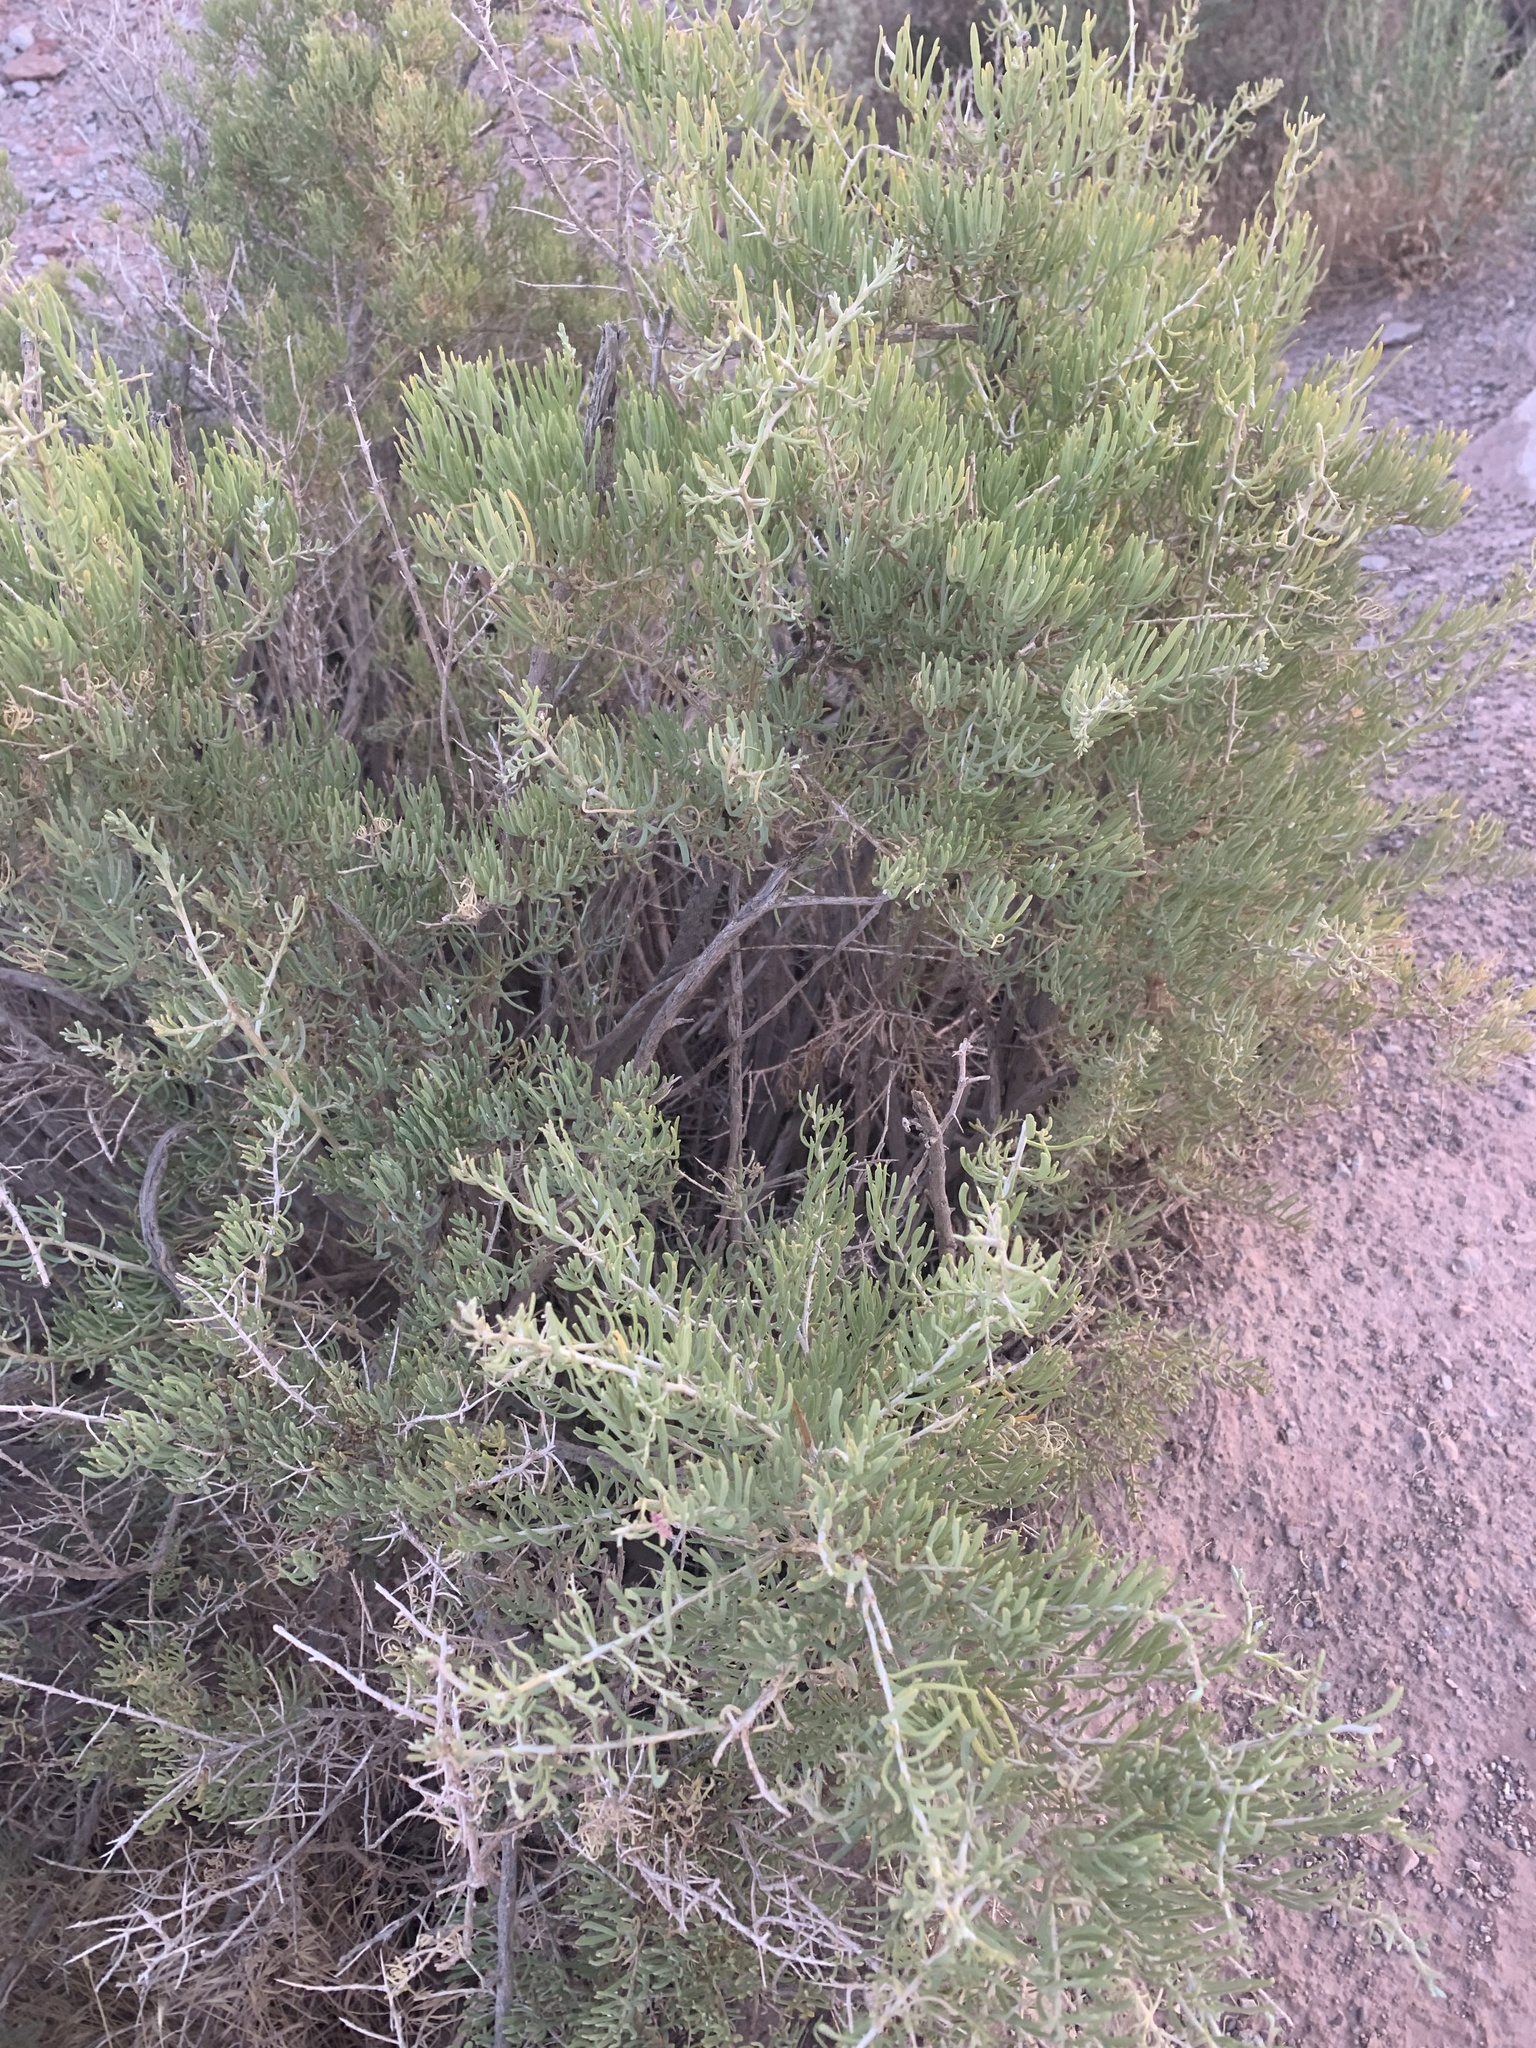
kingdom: Plantae
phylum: Tracheophyta
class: Magnoliopsida
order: Caryophyllales
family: Sarcobataceae
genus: Sarcobatus
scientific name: Sarcobatus vermiculatus
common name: Greasewood
